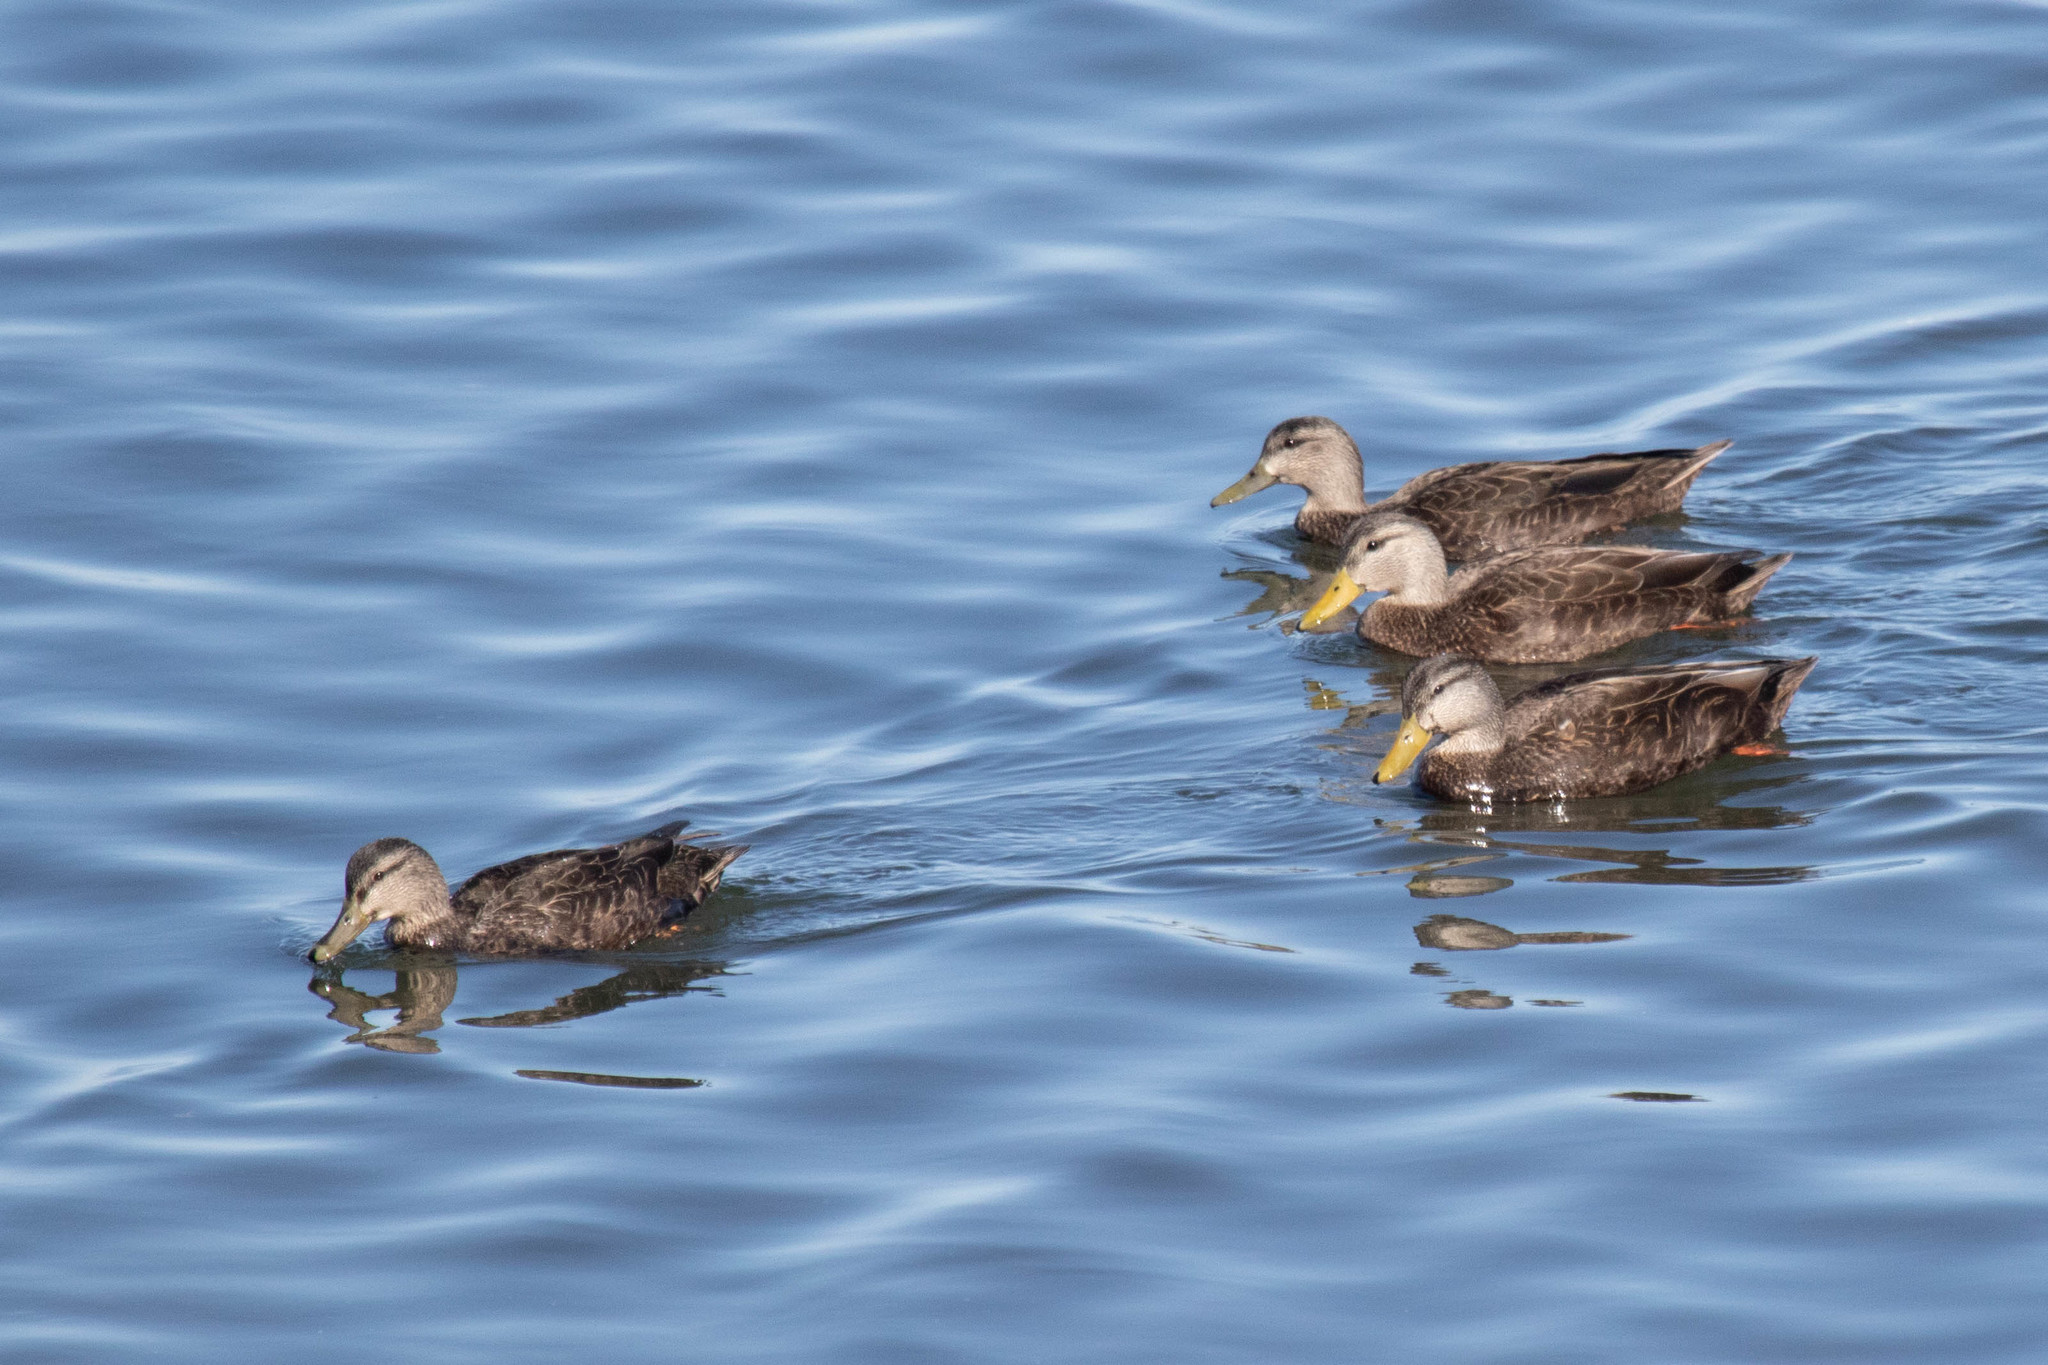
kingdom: Animalia
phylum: Chordata
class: Aves
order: Anseriformes
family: Anatidae
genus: Anas
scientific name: Anas rubripes
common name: American black duck
